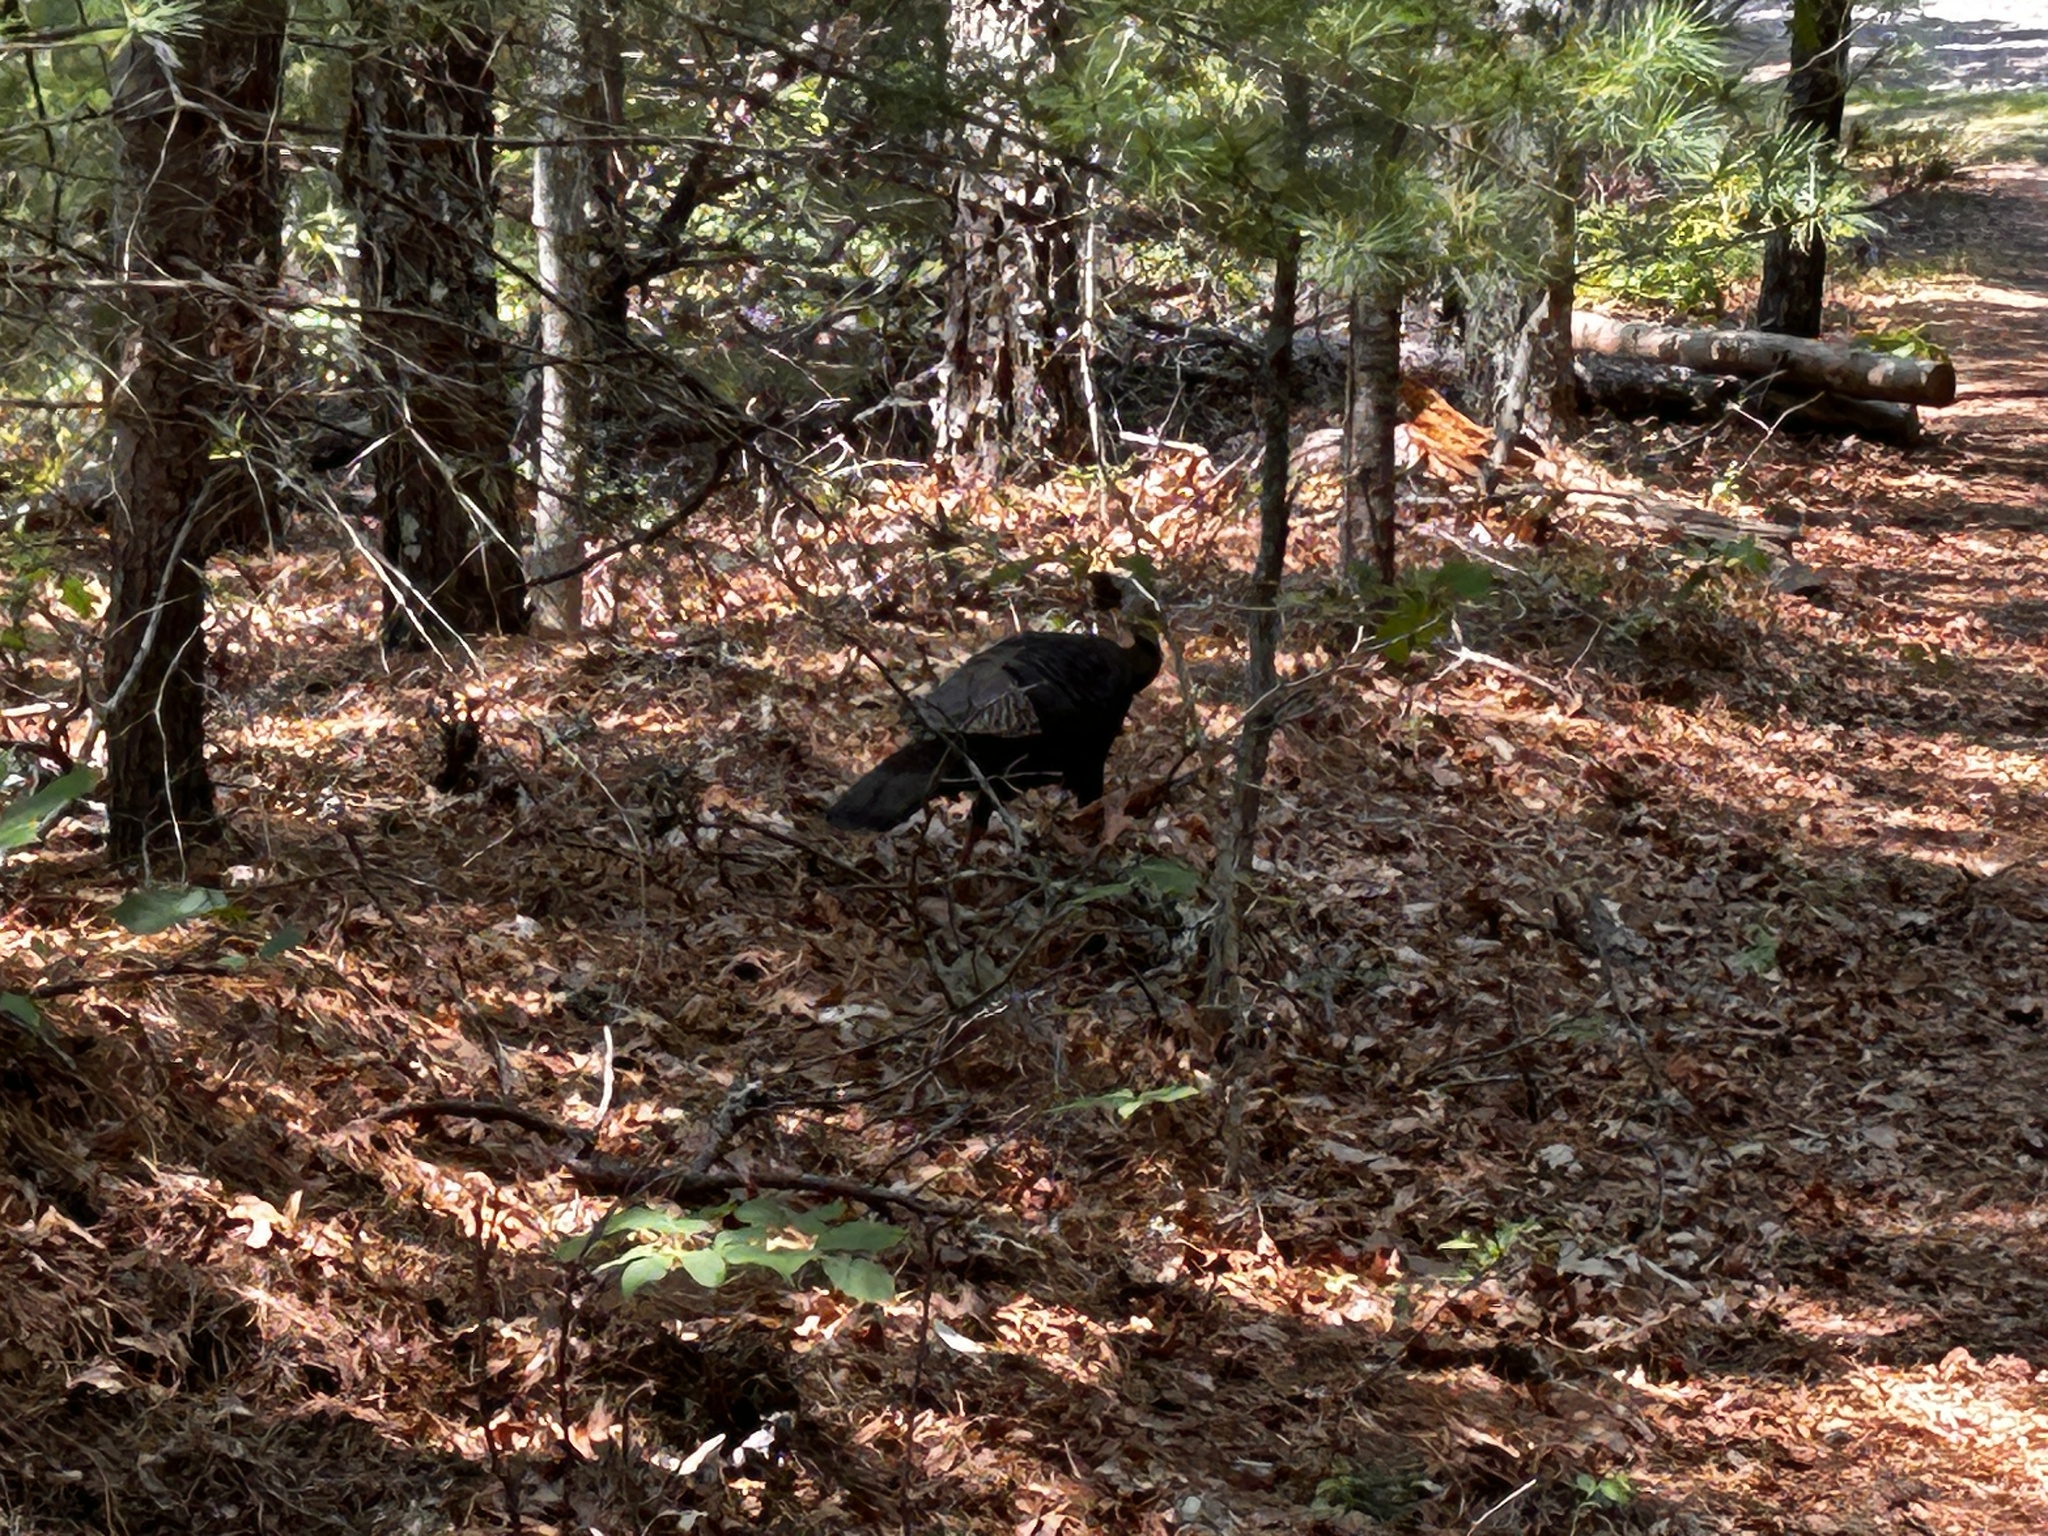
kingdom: Animalia
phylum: Chordata
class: Aves
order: Galliformes
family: Phasianidae
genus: Meleagris
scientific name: Meleagris gallopavo
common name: Wild turkey
